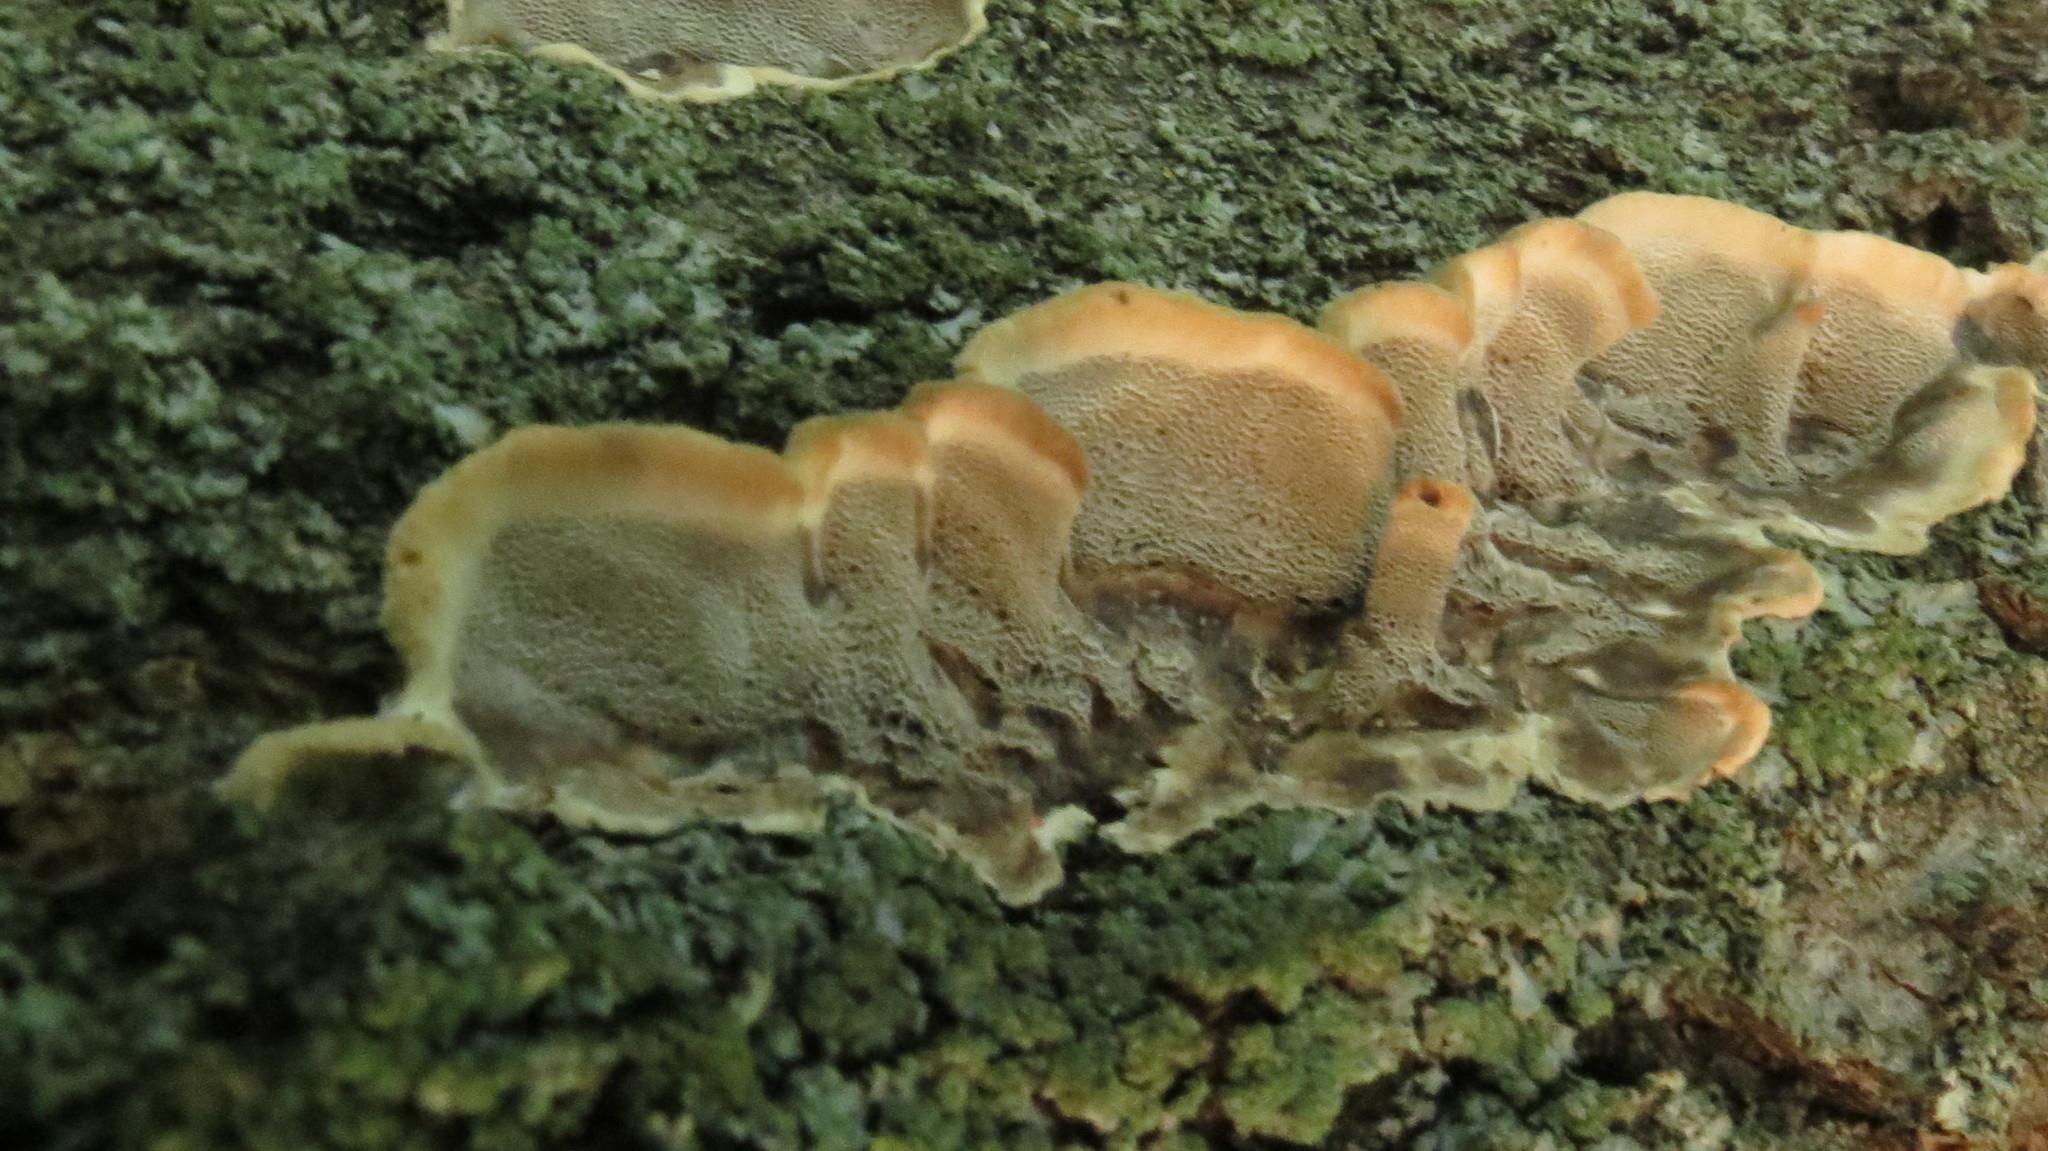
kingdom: Fungi
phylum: Basidiomycota
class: Agaricomycetes
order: Polyporales
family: Phanerochaetaceae
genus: Bjerkandera
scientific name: Bjerkandera adusta
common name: Smoky bracket
